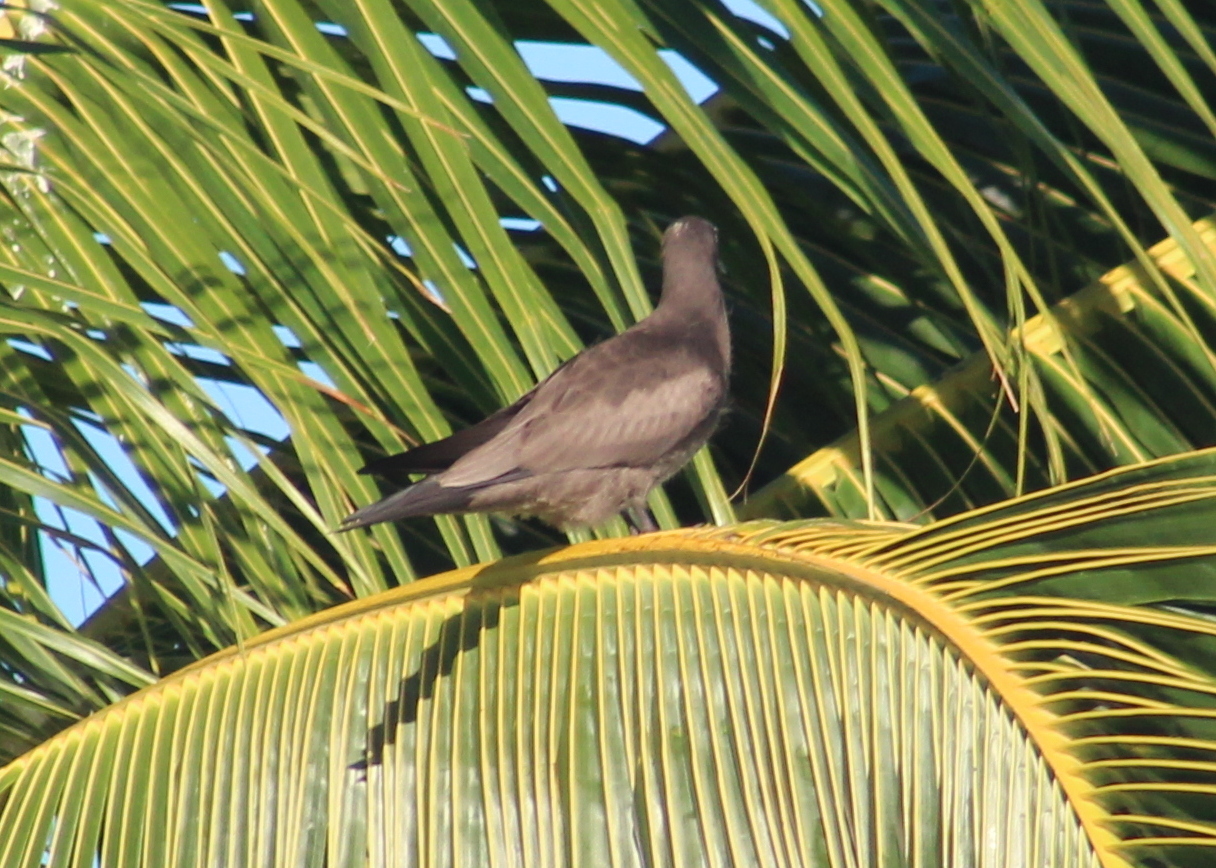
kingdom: Animalia
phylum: Chordata
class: Aves
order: Charadriiformes
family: Laridae
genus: Anous
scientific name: Anous stolidus
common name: Brown noddy
